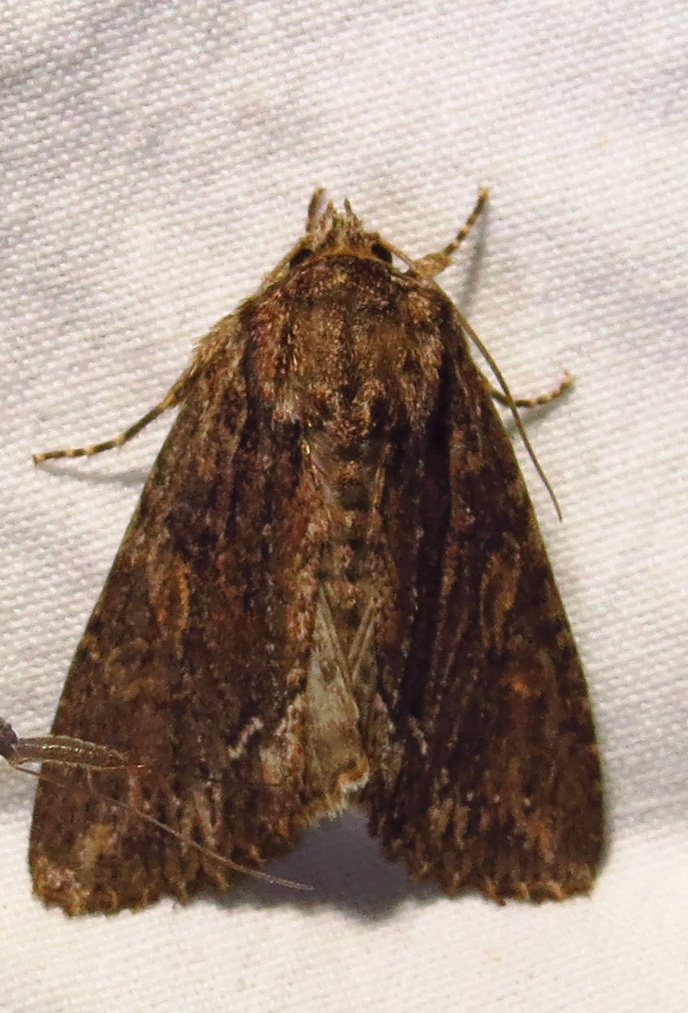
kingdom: Animalia
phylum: Arthropoda
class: Insecta
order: Lepidoptera
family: Noctuidae
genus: Achatia
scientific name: Achatia confusa
